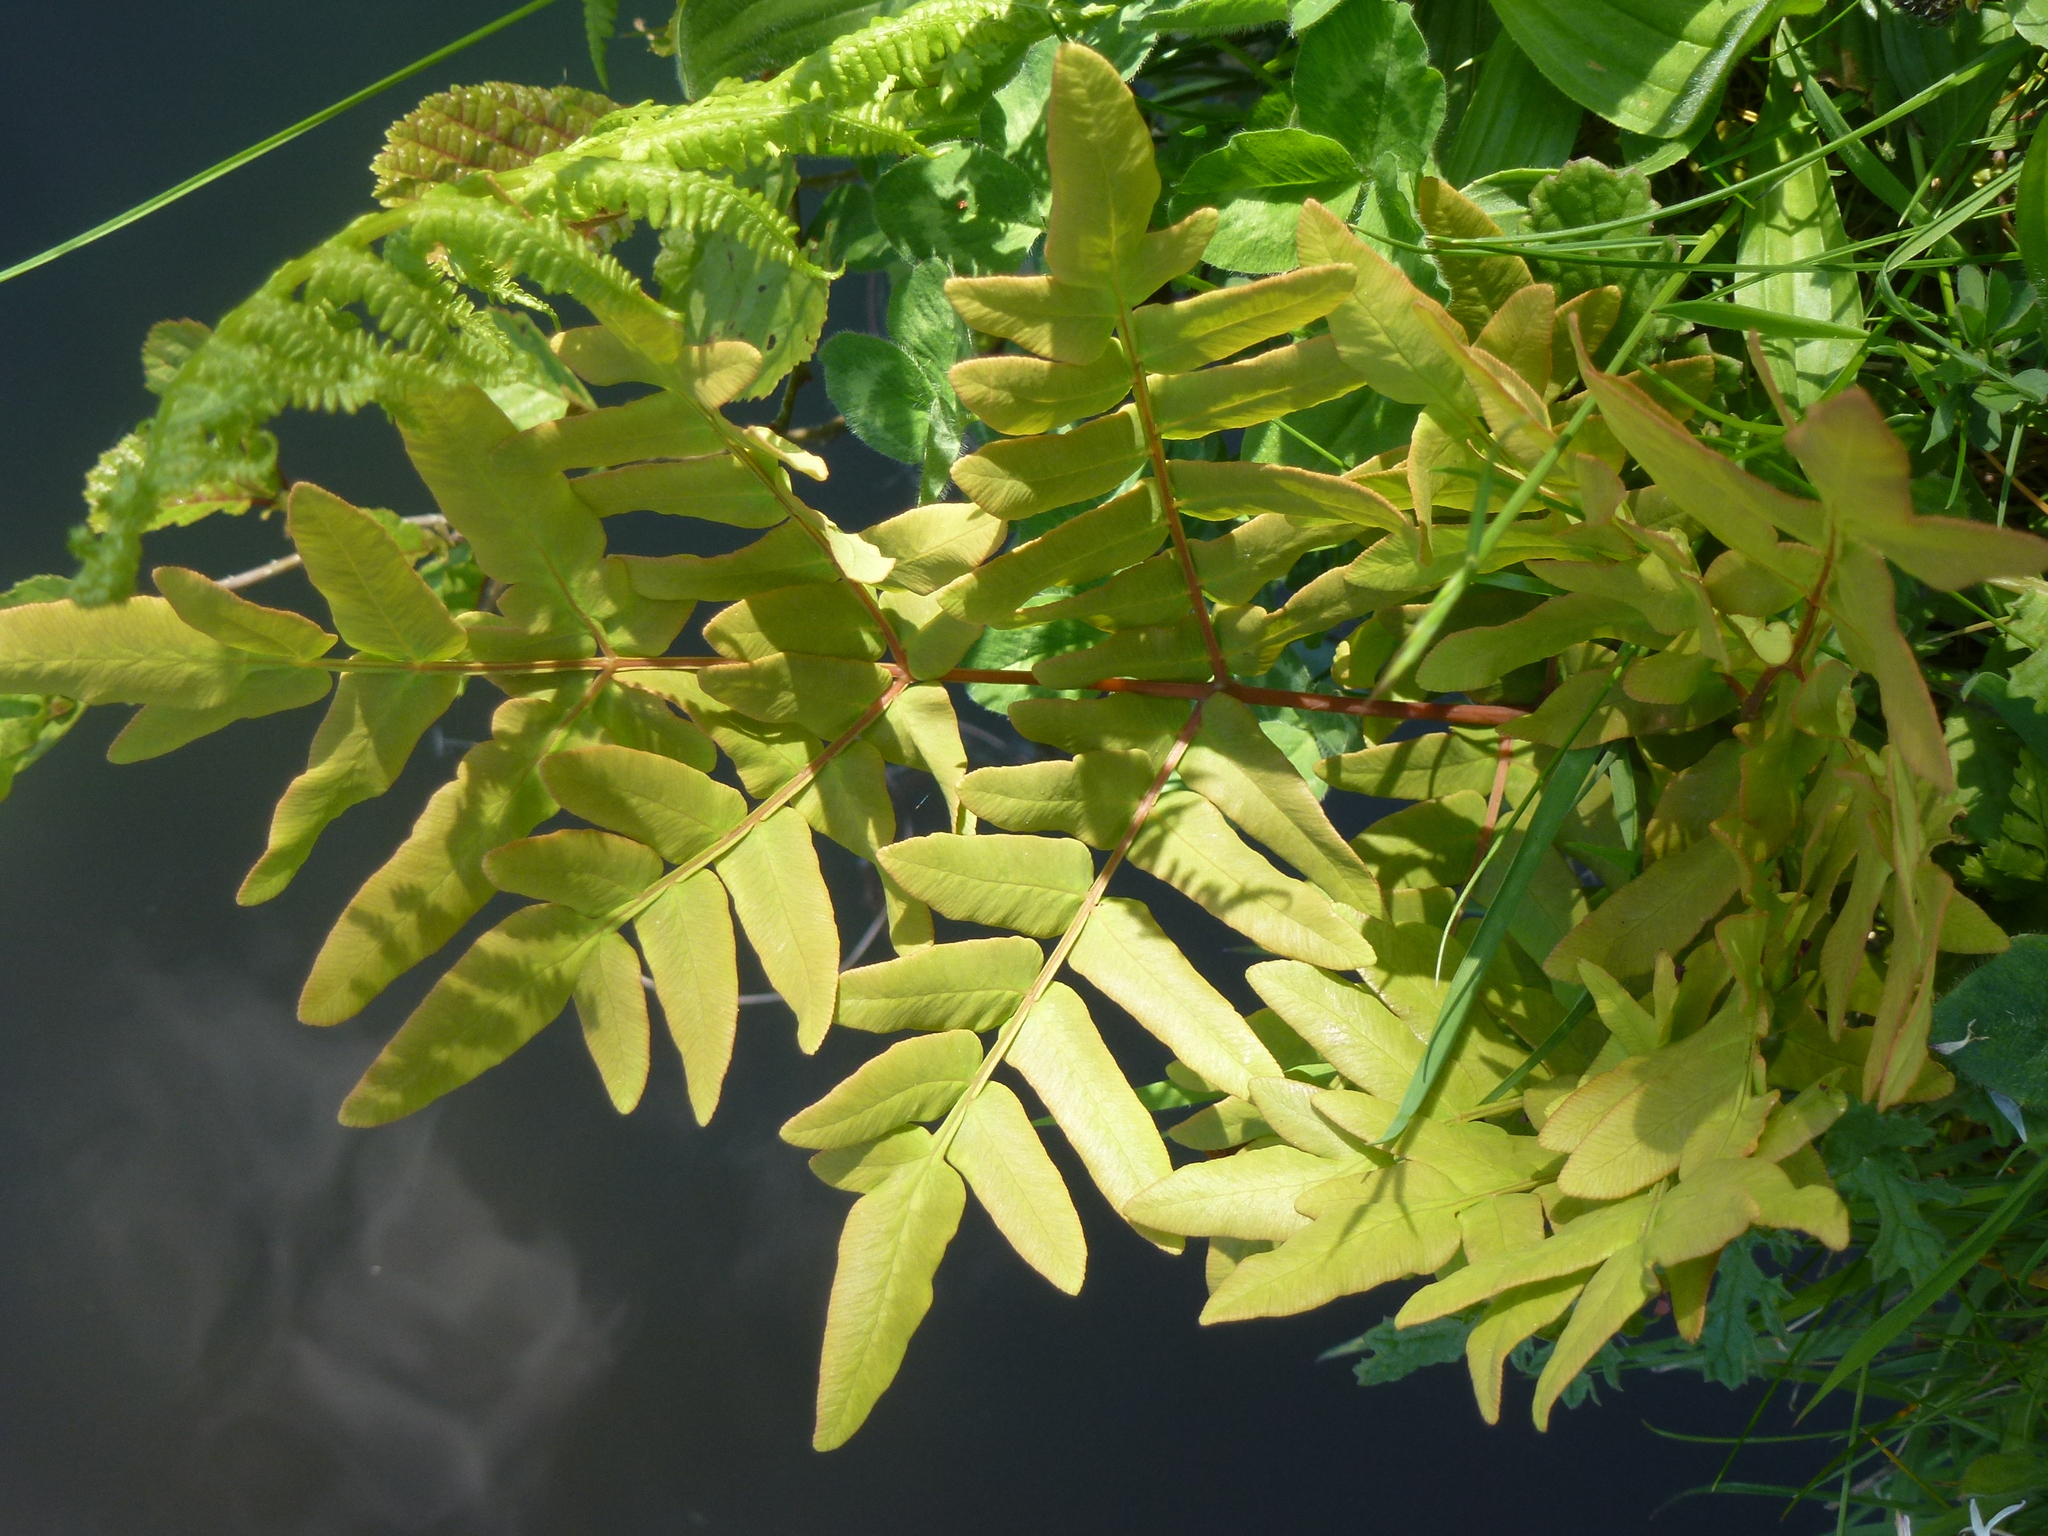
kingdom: Plantae
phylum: Tracheophyta
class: Polypodiopsida
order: Osmundales
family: Osmundaceae
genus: Osmunda
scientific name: Osmunda regalis
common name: Royal fern
